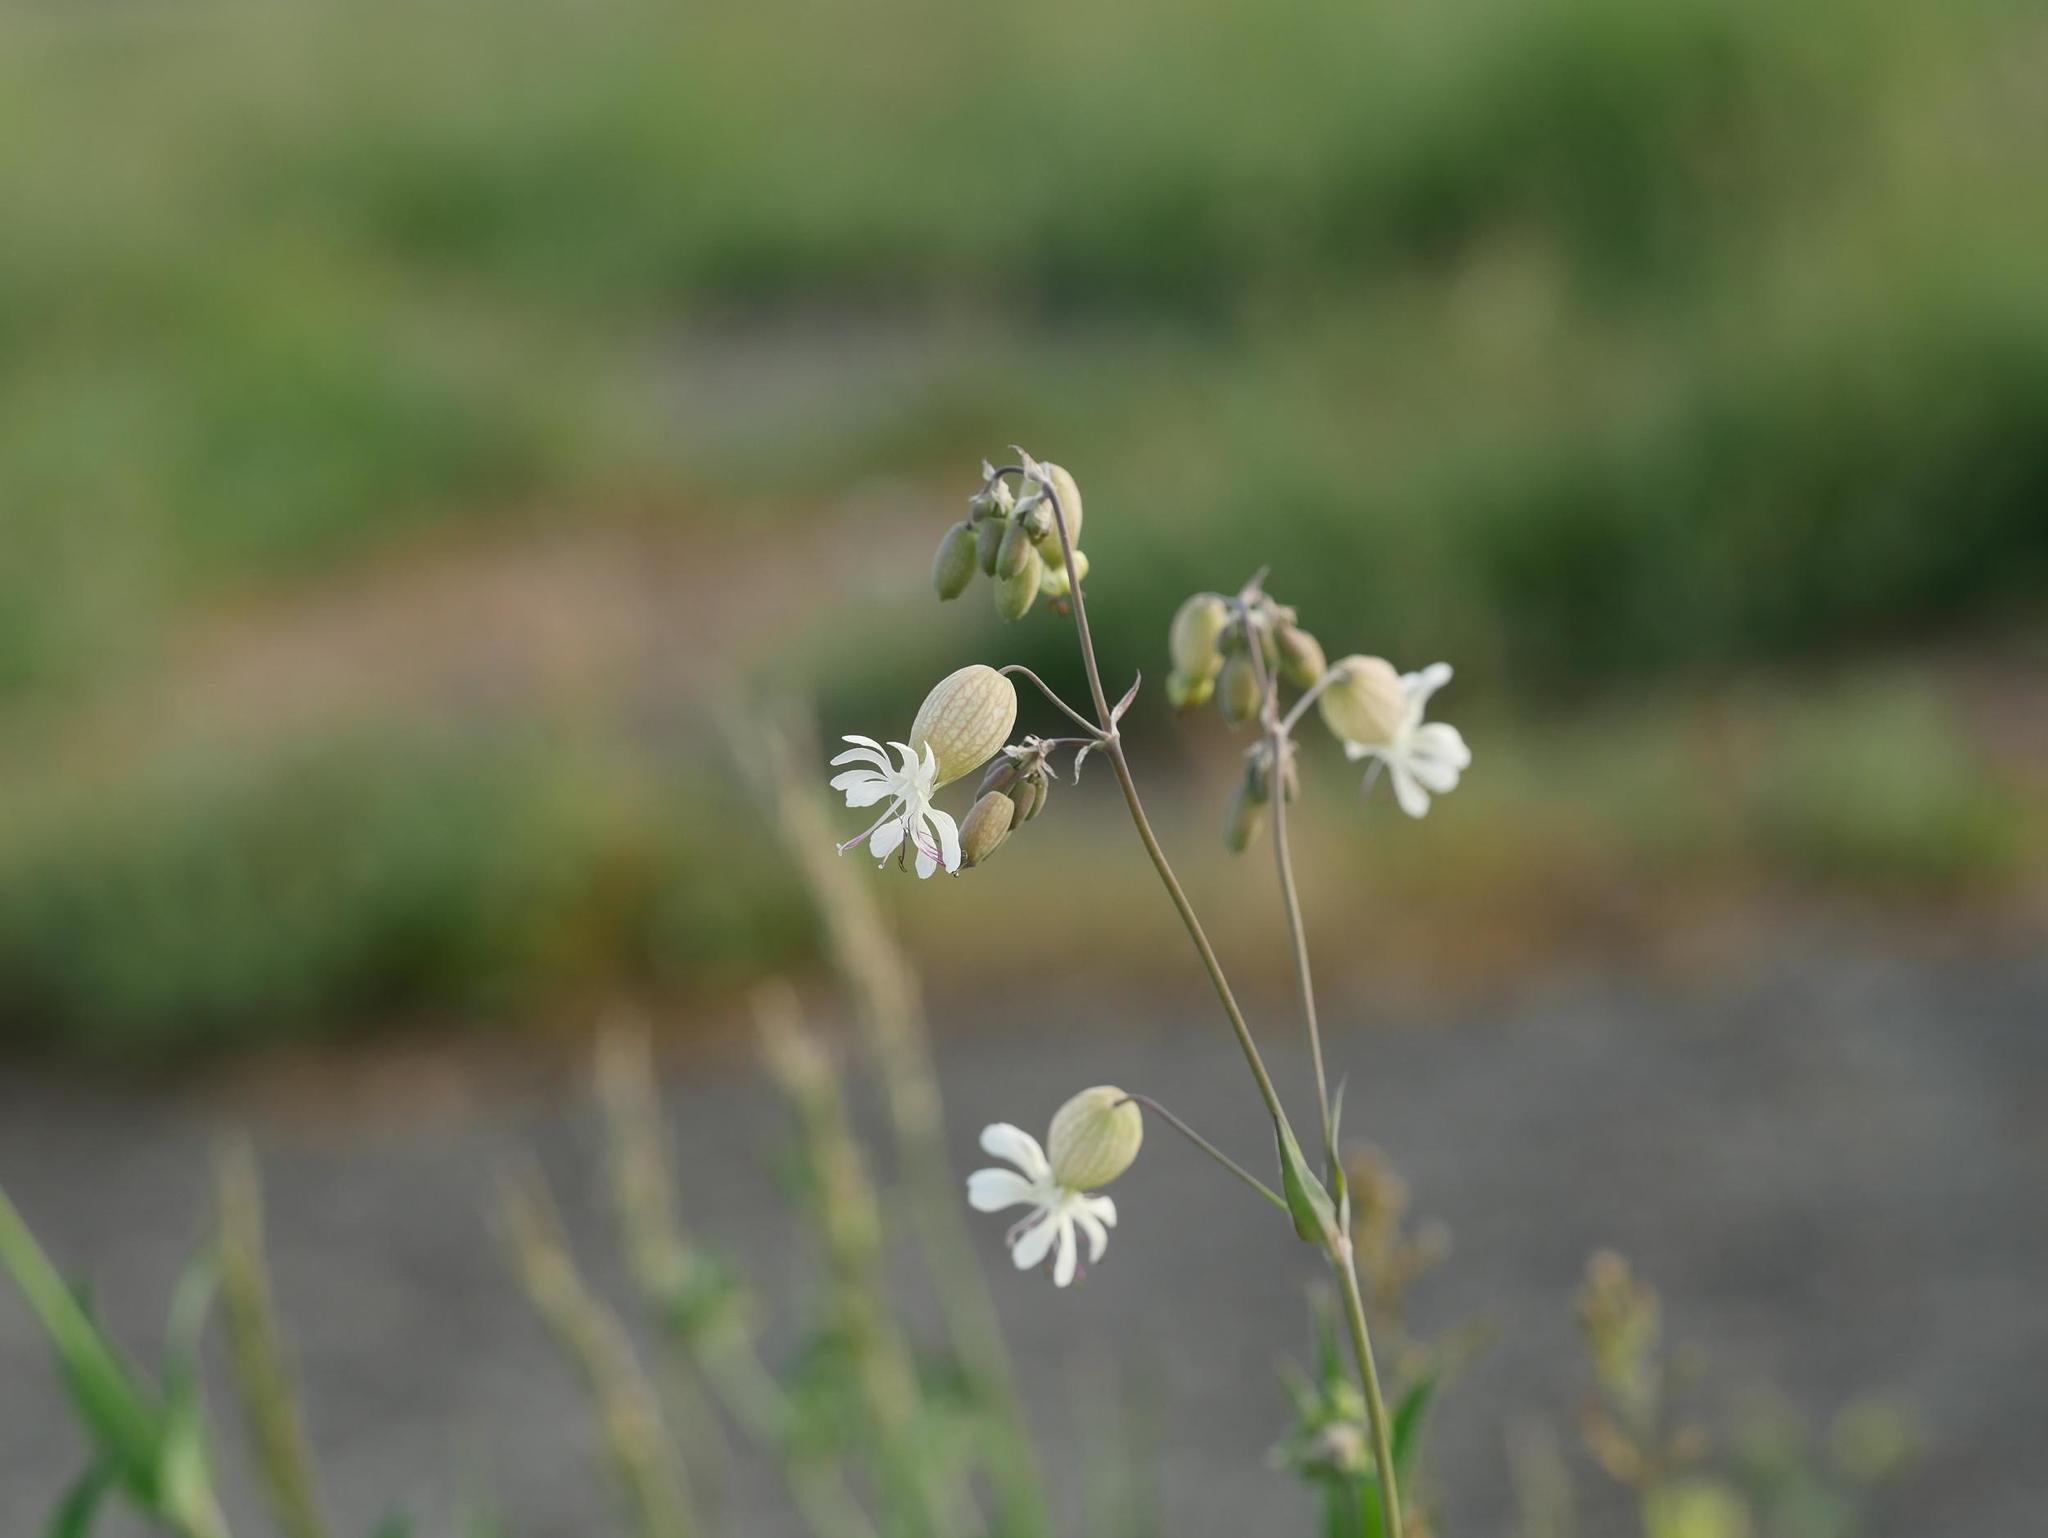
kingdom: Plantae
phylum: Tracheophyta
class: Magnoliopsida
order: Caryophyllales
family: Caryophyllaceae
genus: Silene
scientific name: Silene vulgaris
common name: Bladder campion
